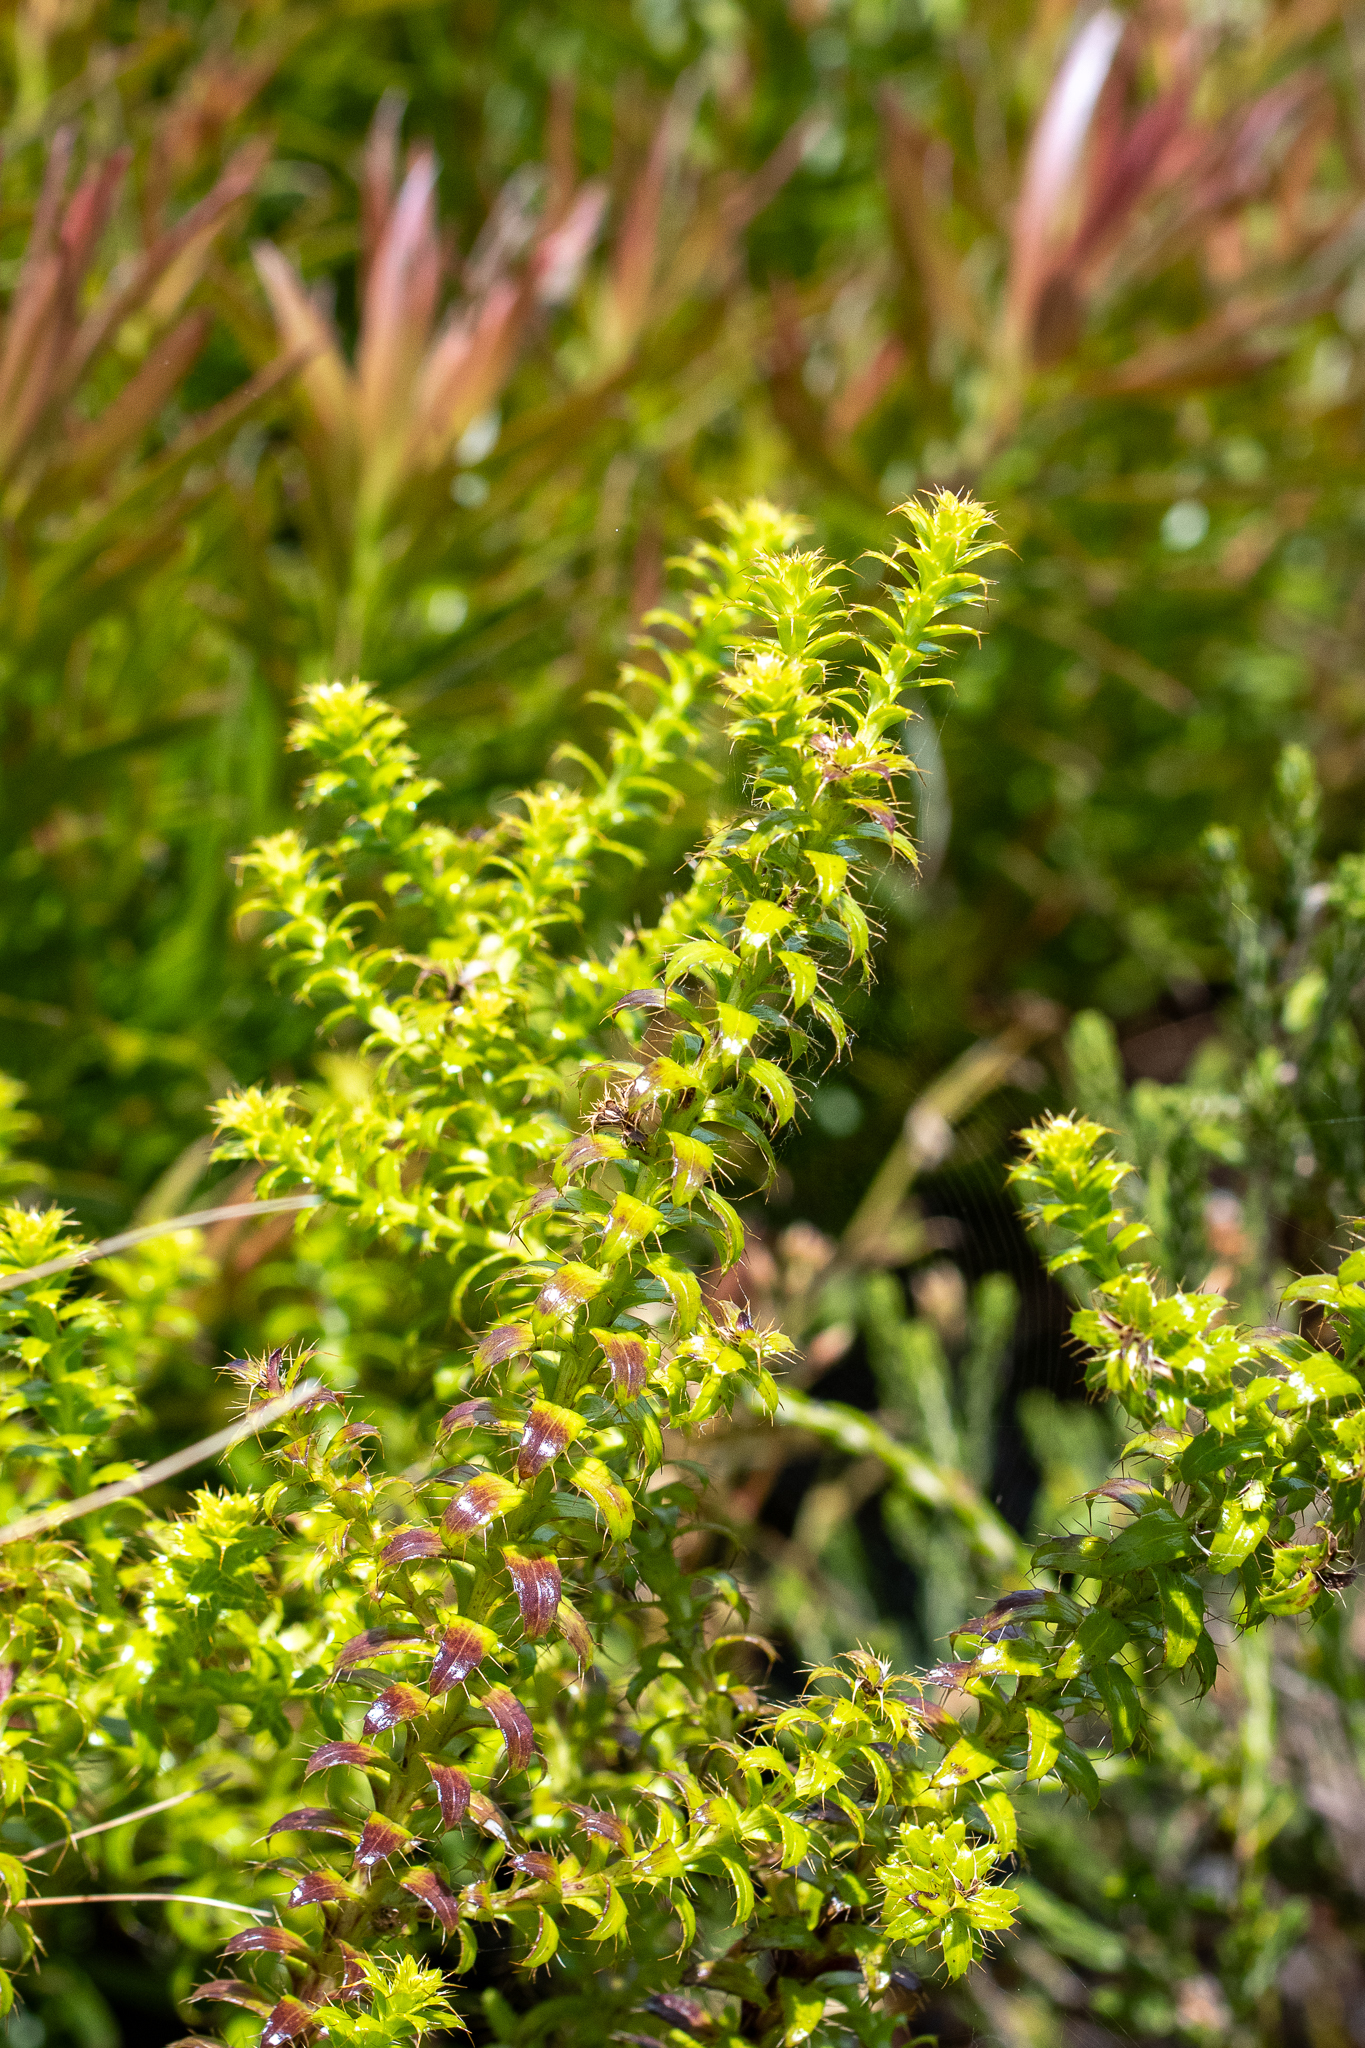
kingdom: Plantae
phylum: Tracheophyta
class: Magnoliopsida
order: Asterales
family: Asteraceae
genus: Cullumia
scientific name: Cullumia setosa
